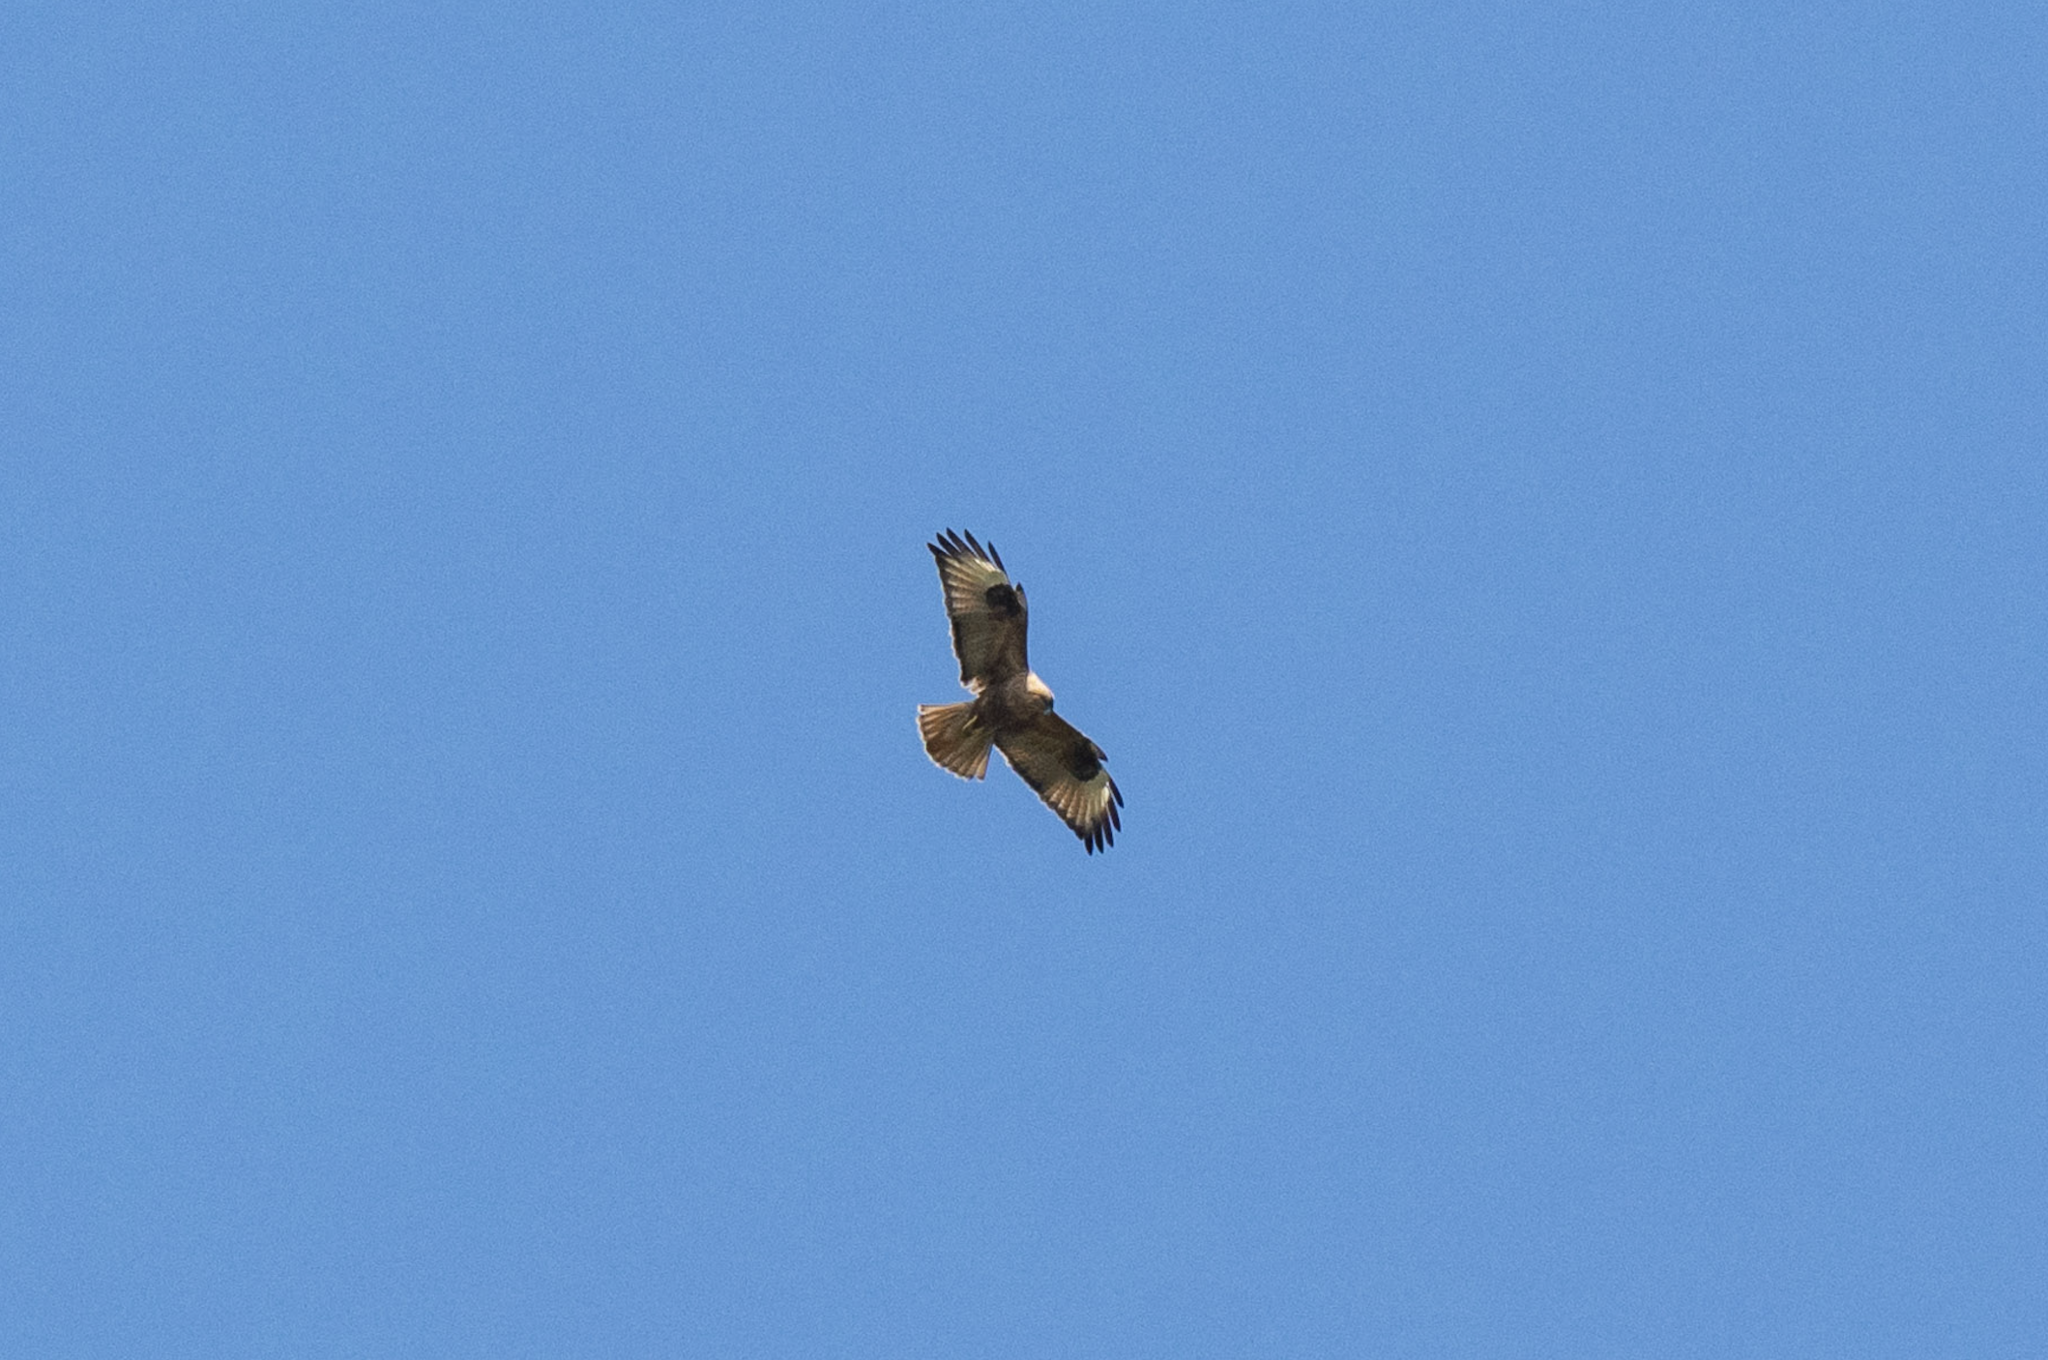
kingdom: Animalia
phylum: Chordata
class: Aves
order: Accipitriformes
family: Accipitridae
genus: Buteo
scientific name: Buteo japonicus
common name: Eastern buzzard
